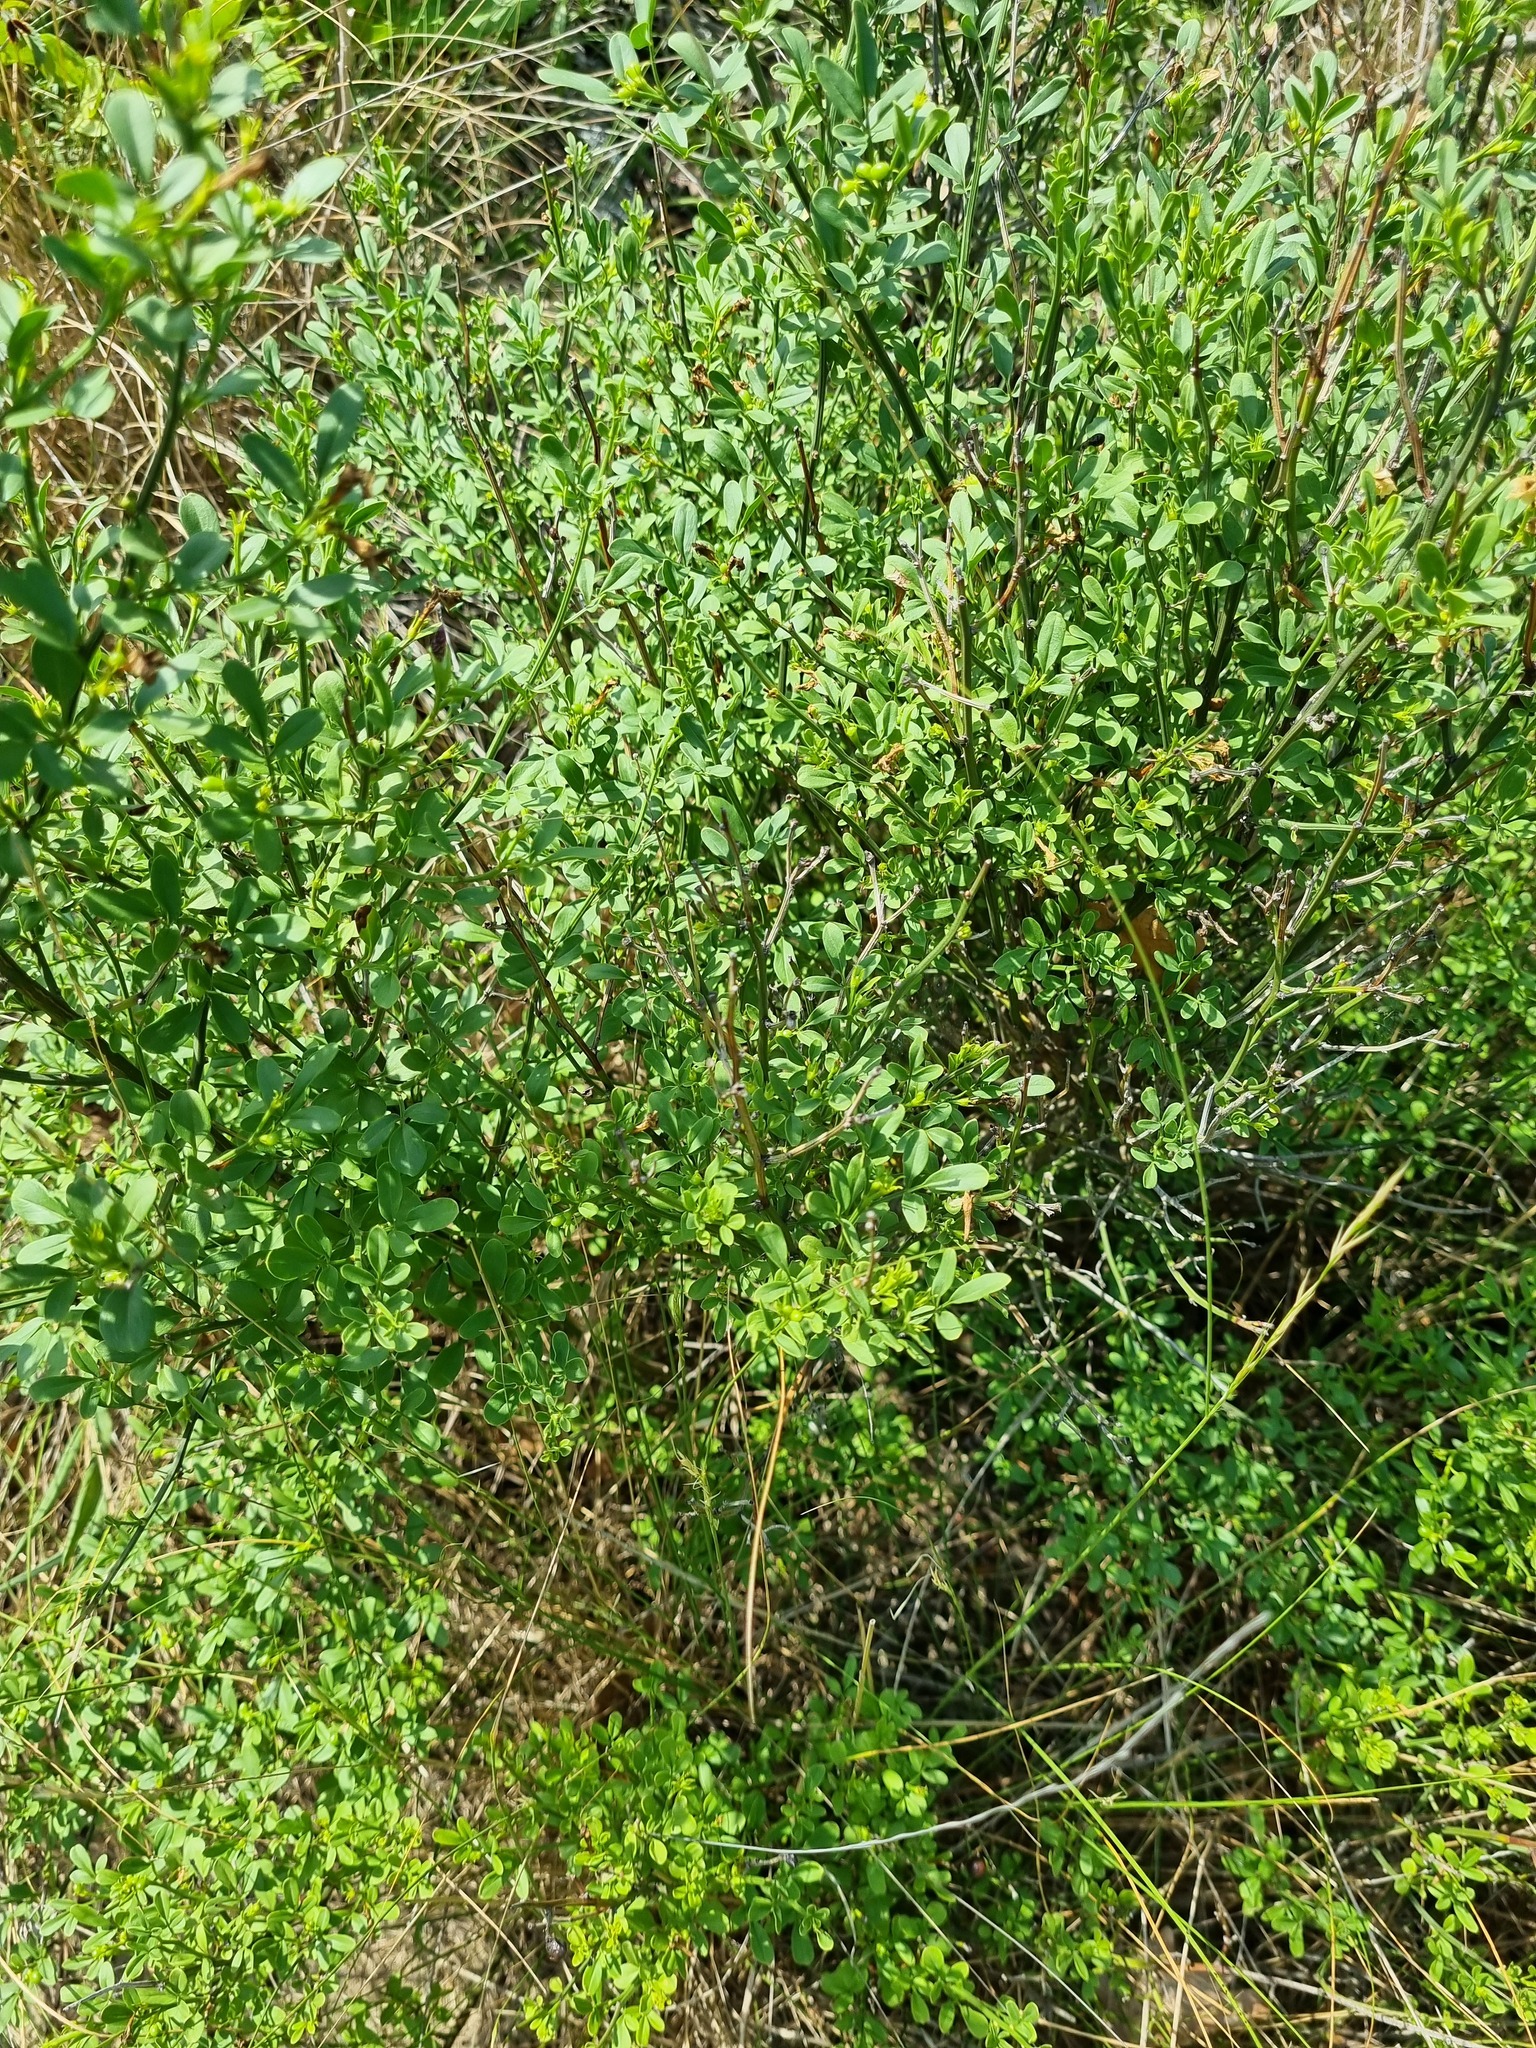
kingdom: Plantae
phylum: Tracheophyta
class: Magnoliopsida
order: Lamiales
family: Oleaceae
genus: Chrysojasminum
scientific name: Chrysojasminum fruticans
